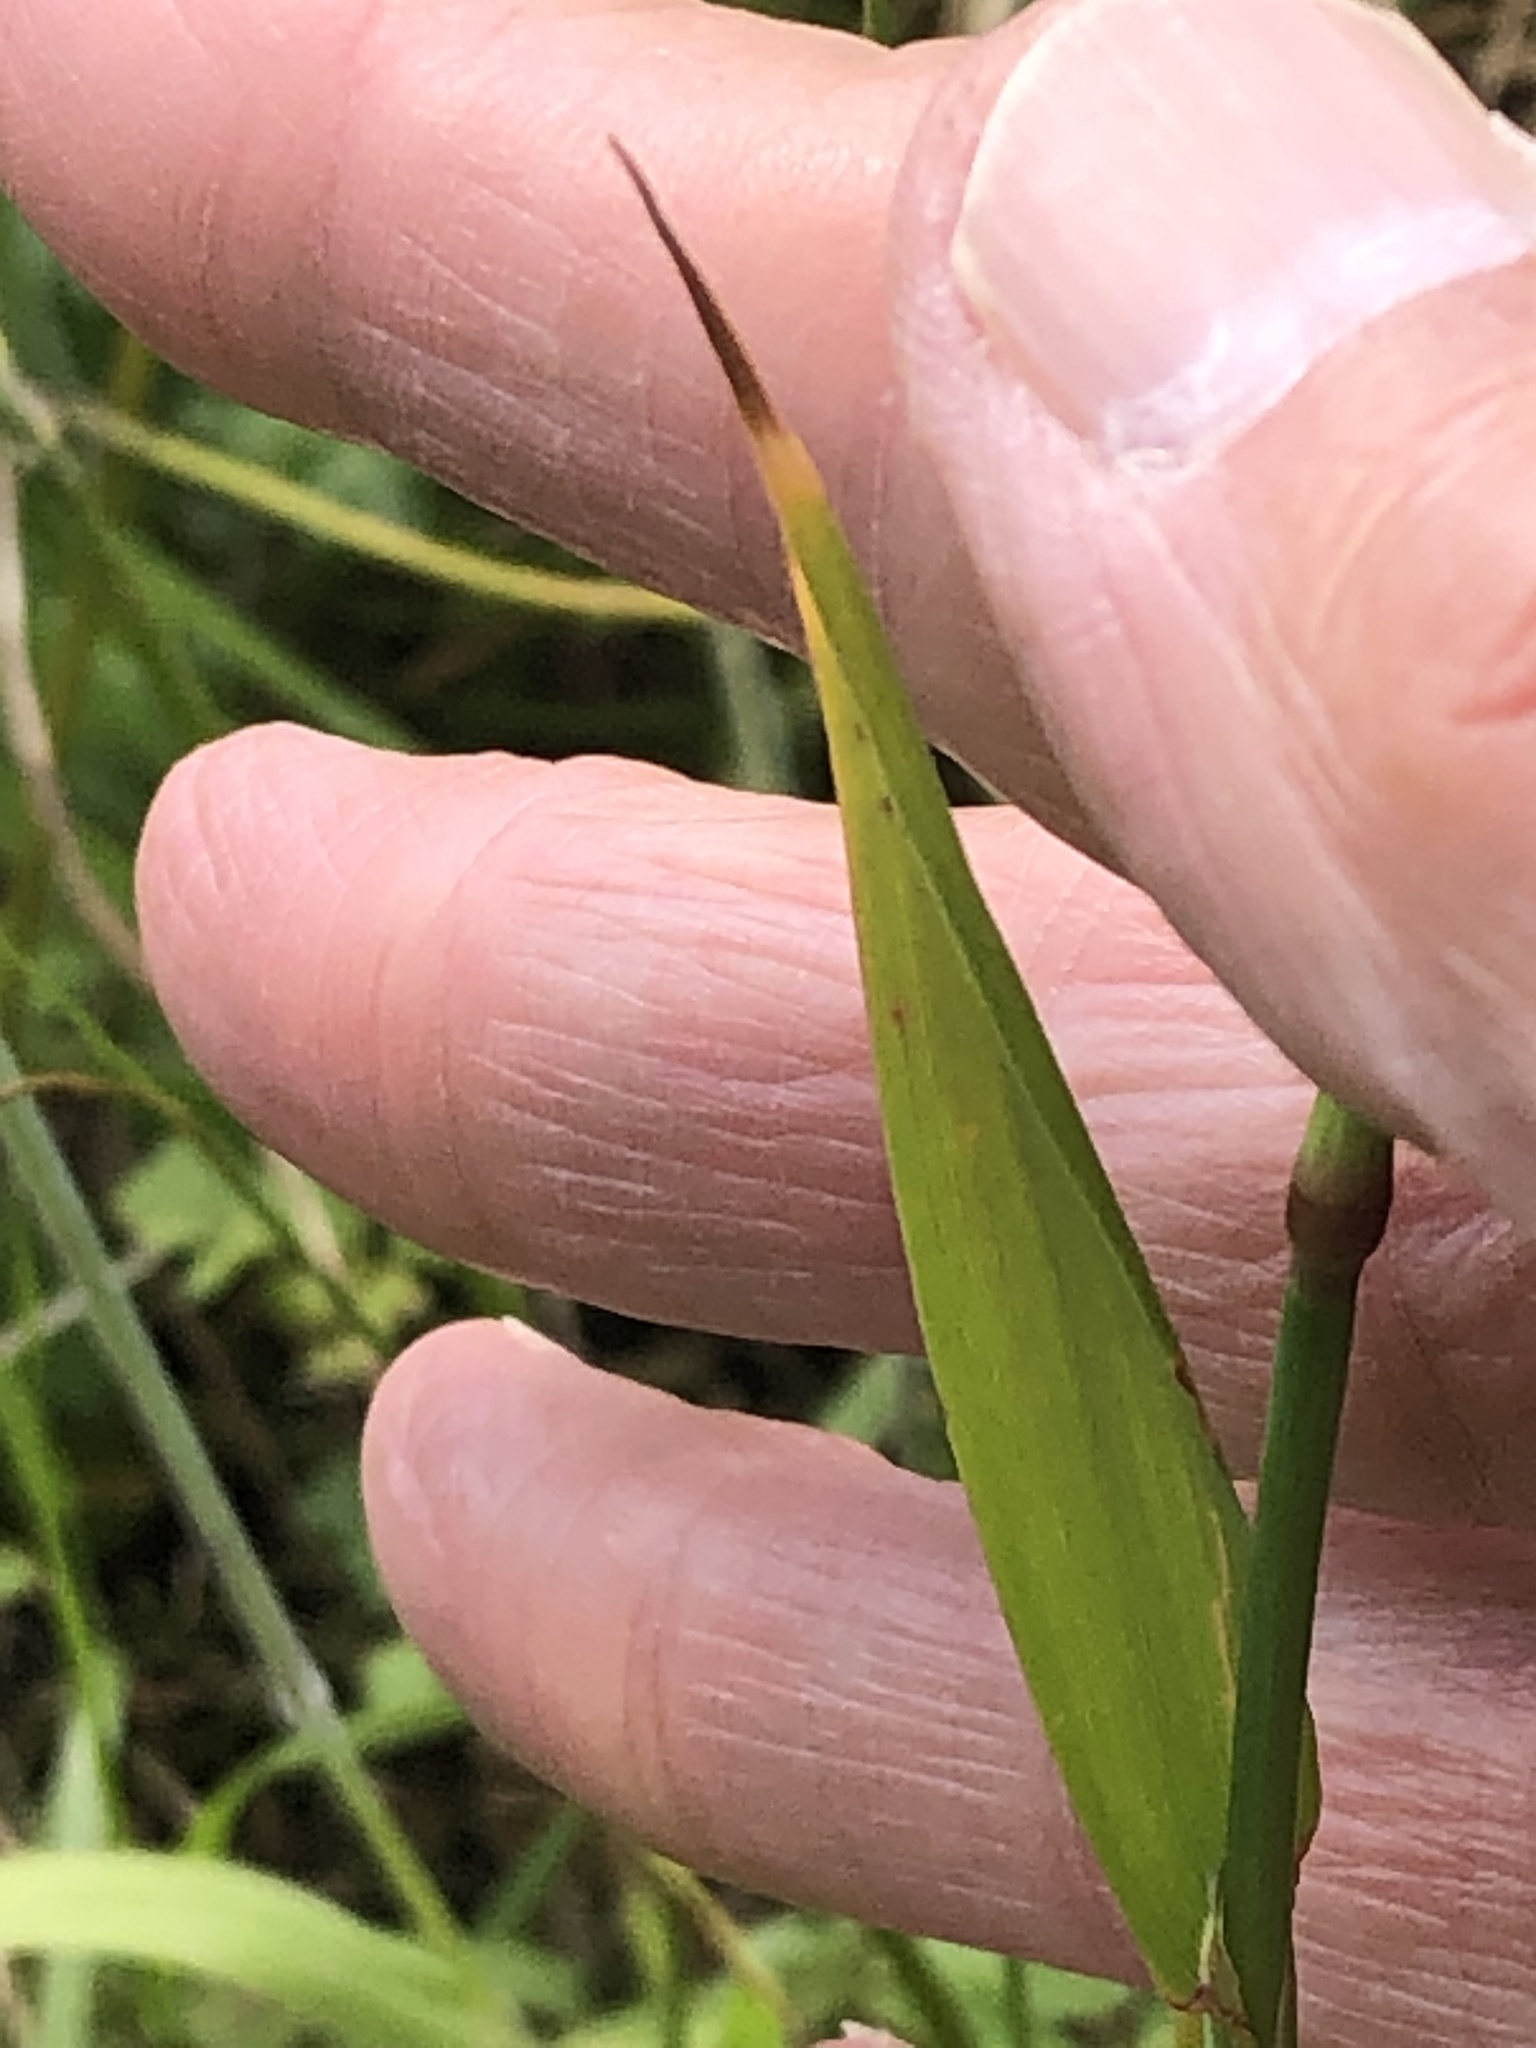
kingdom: Plantae
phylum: Tracheophyta
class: Liliopsida
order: Poales
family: Poaceae
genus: Phleum
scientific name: Phleum pratense
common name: Timothy grass
